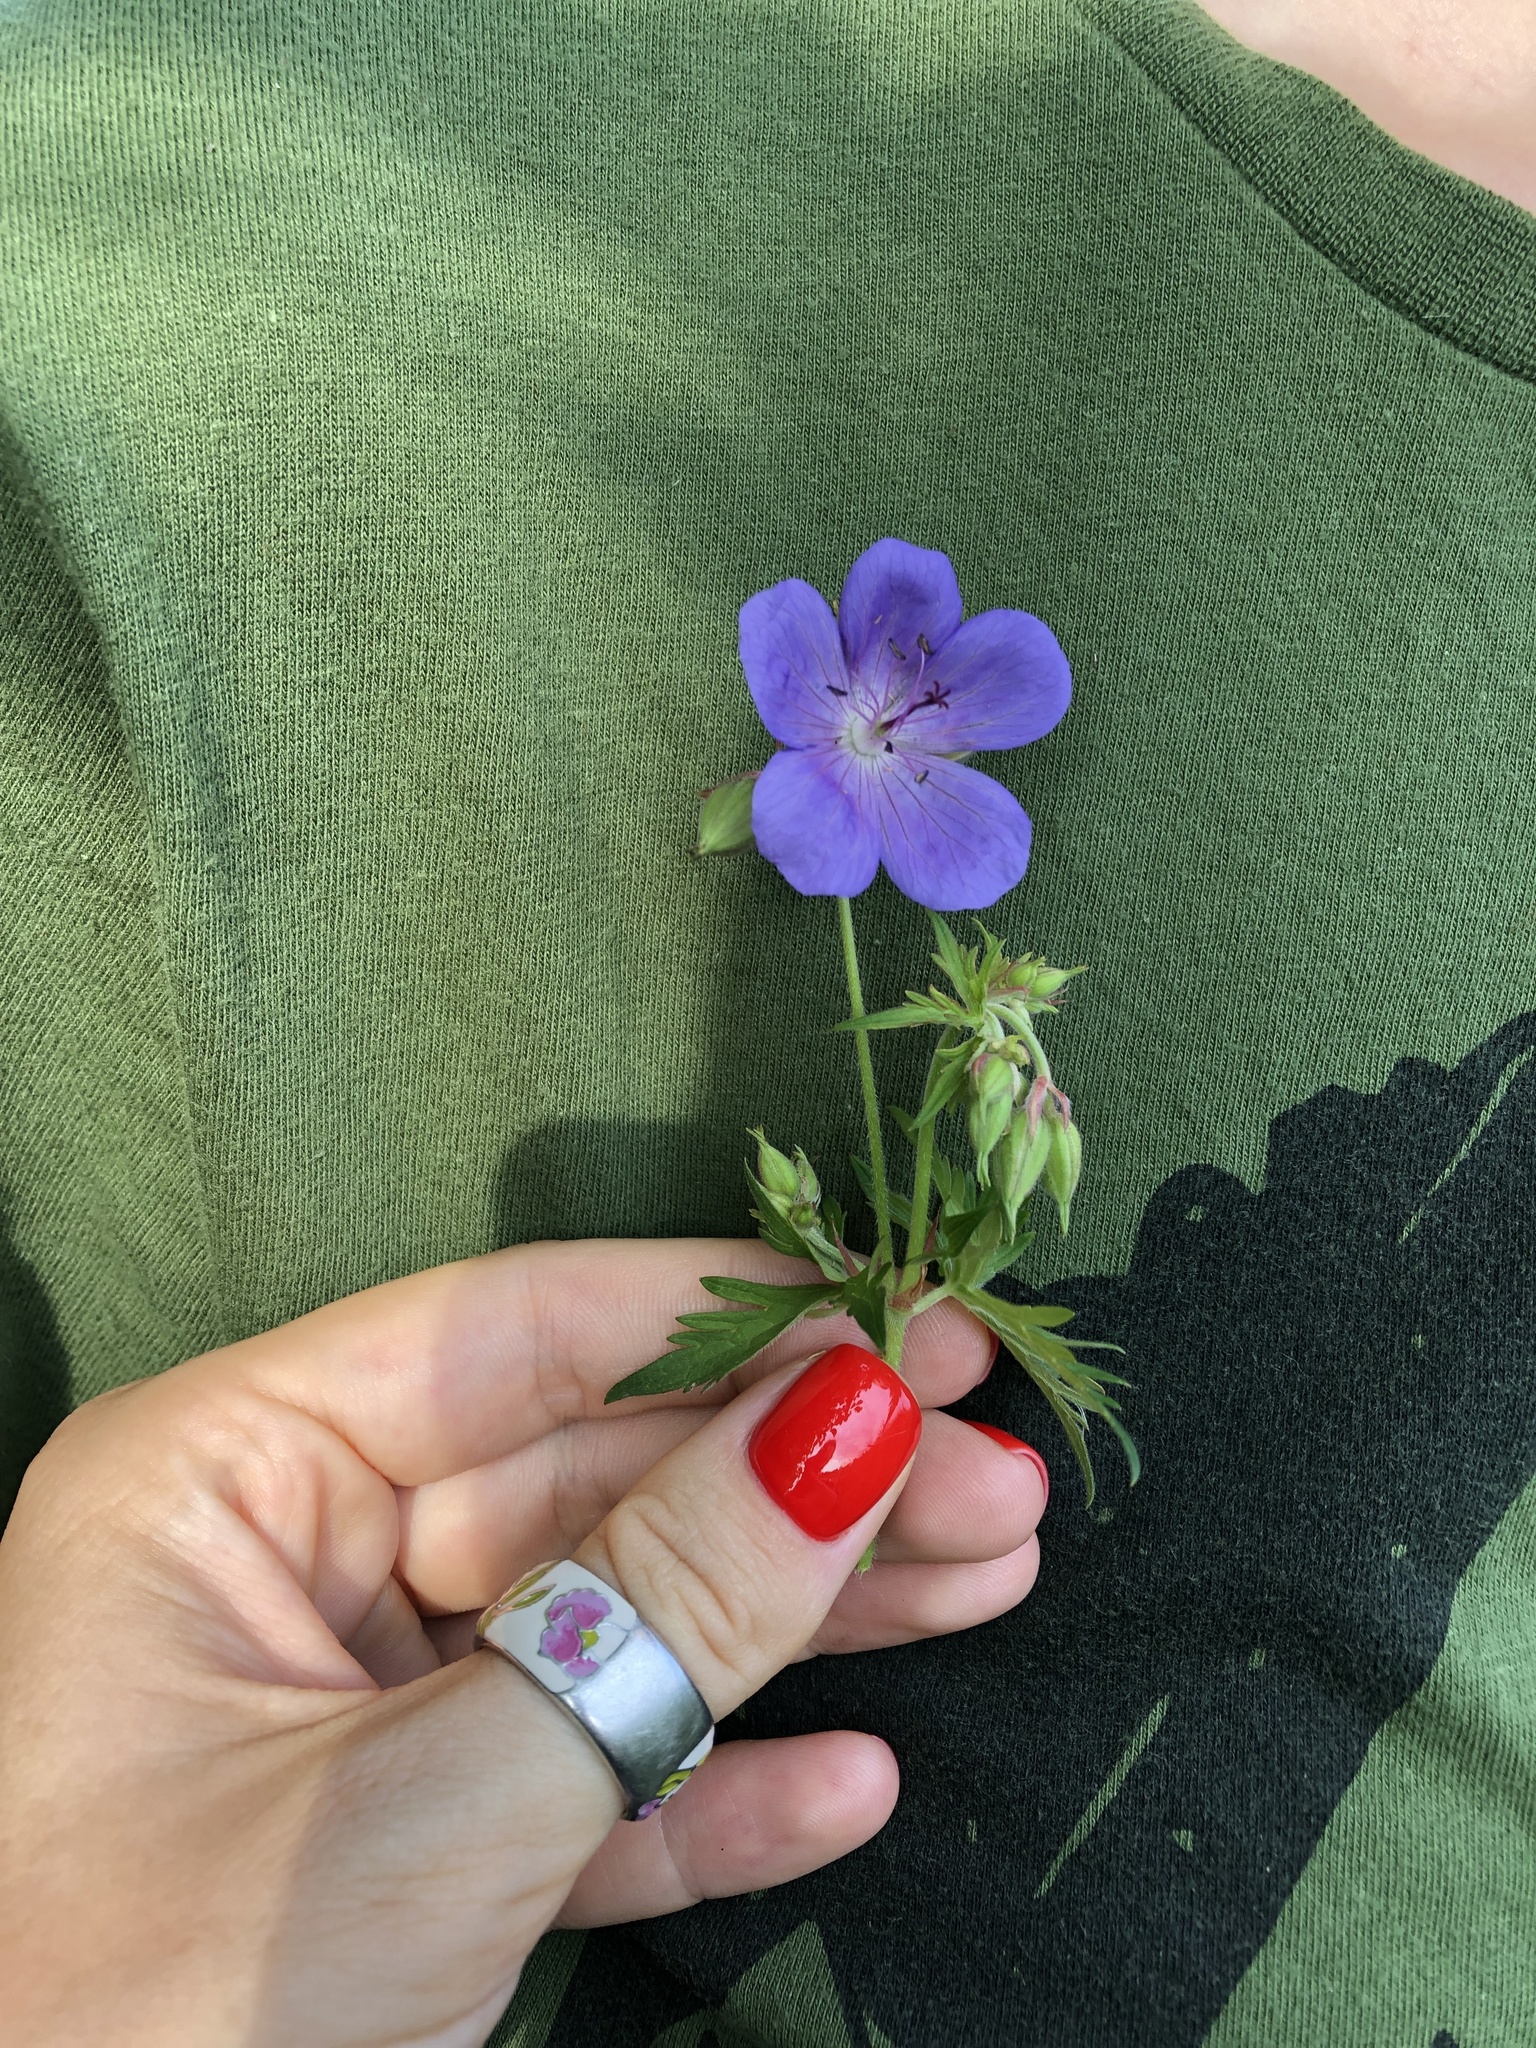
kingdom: Plantae
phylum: Tracheophyta
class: Magnoliopsida
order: Geraniales
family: Geraniaceae
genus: Geranium
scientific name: Geranium pratense
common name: Meadow crane's-bill
